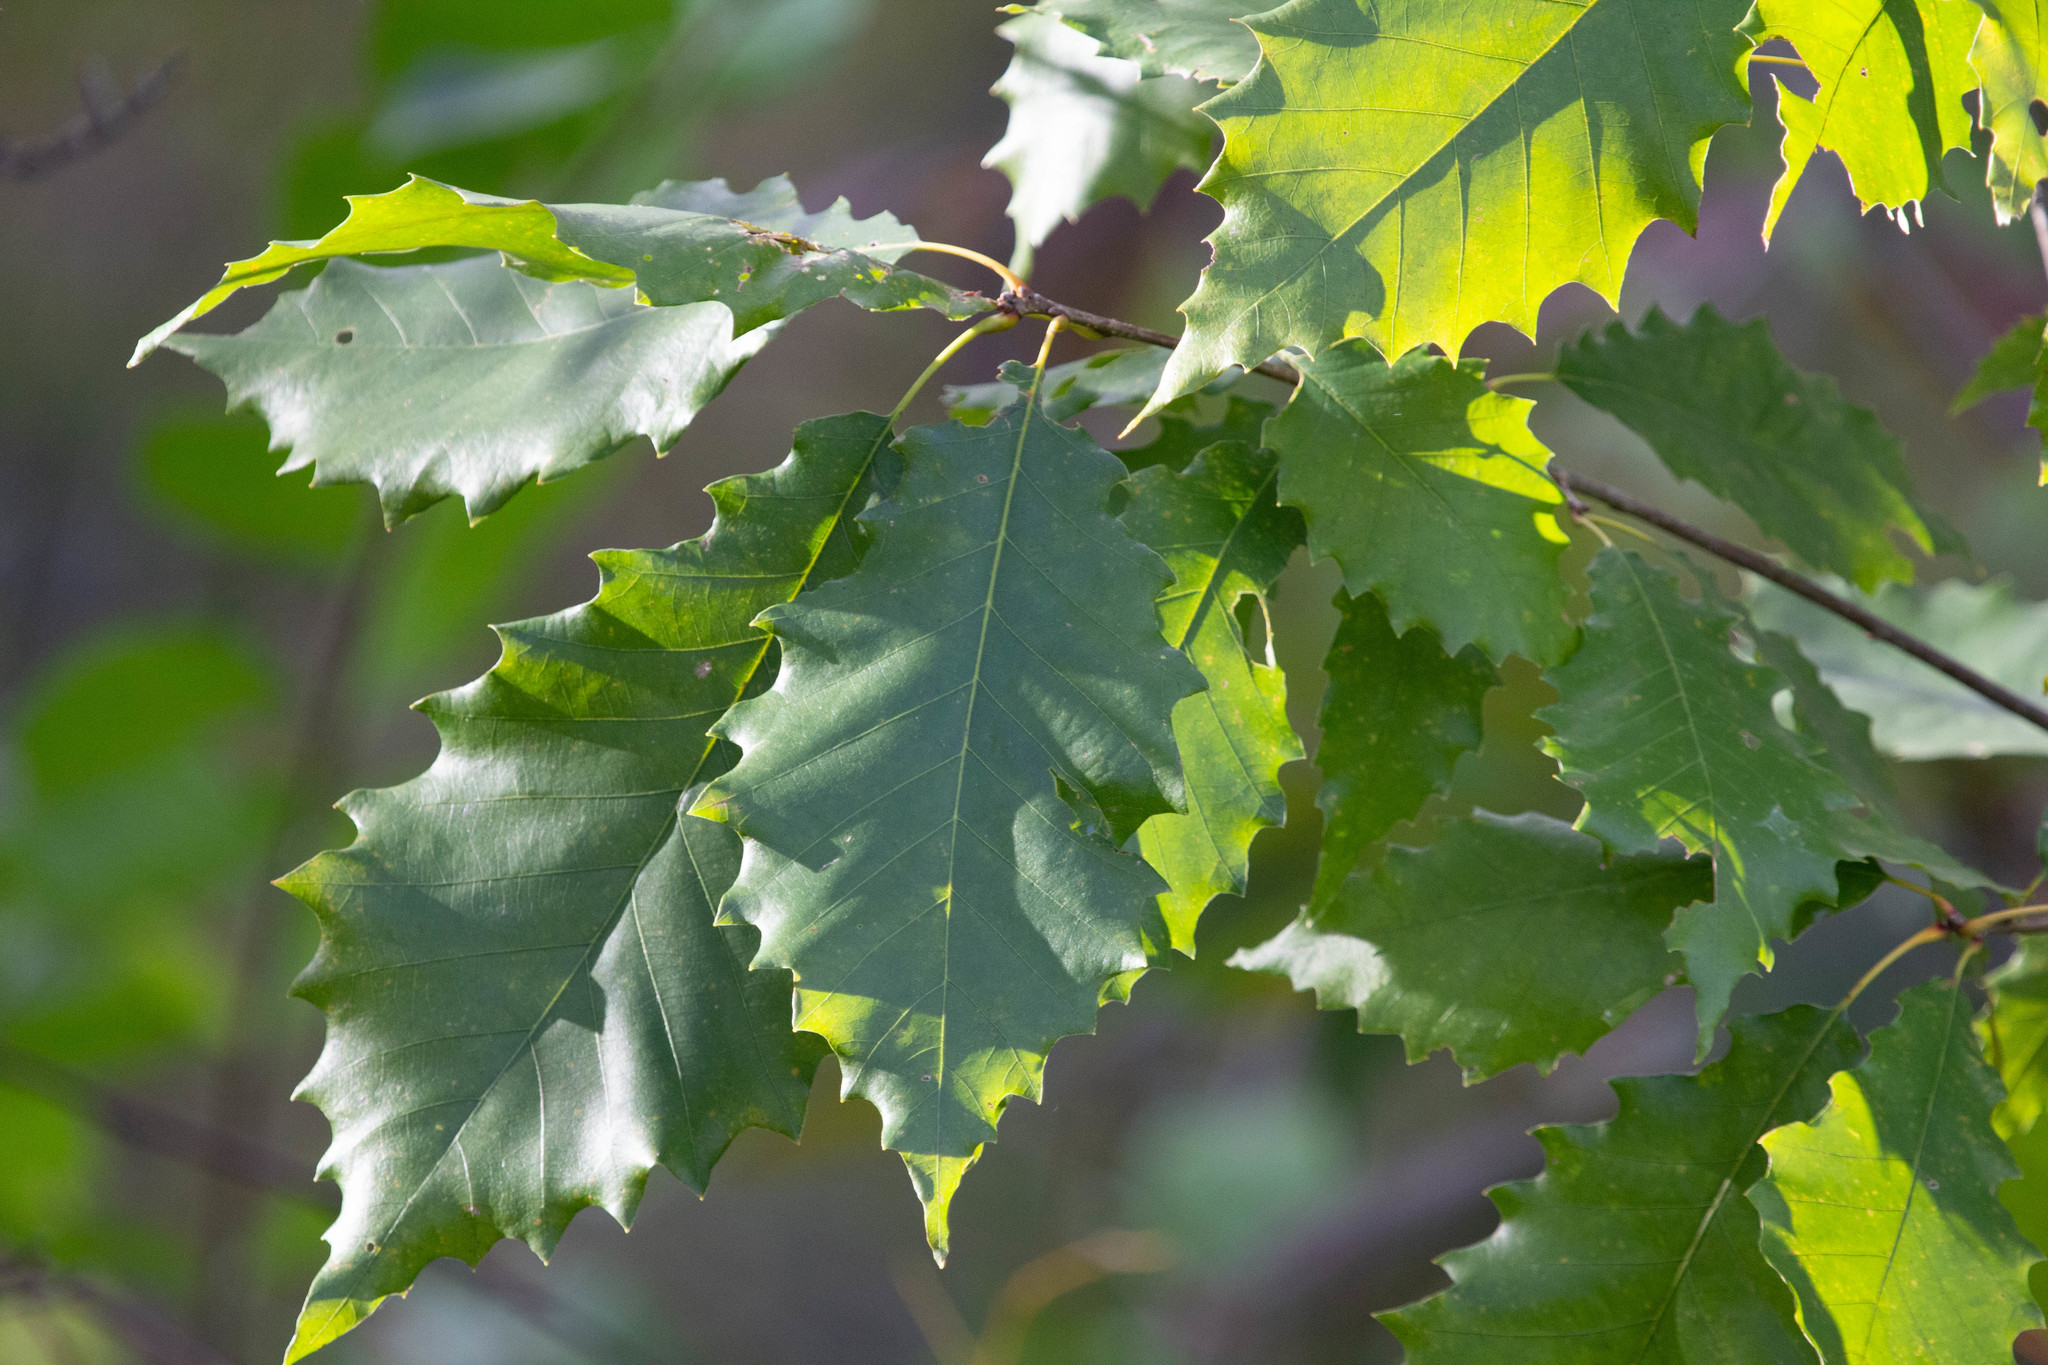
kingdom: Plantae
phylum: Tracheophyta
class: Magnoliopsida
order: Fagales
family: Fagaceae
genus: Quercus
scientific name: Quercus muehlenbergii
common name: Chinkapin oak
